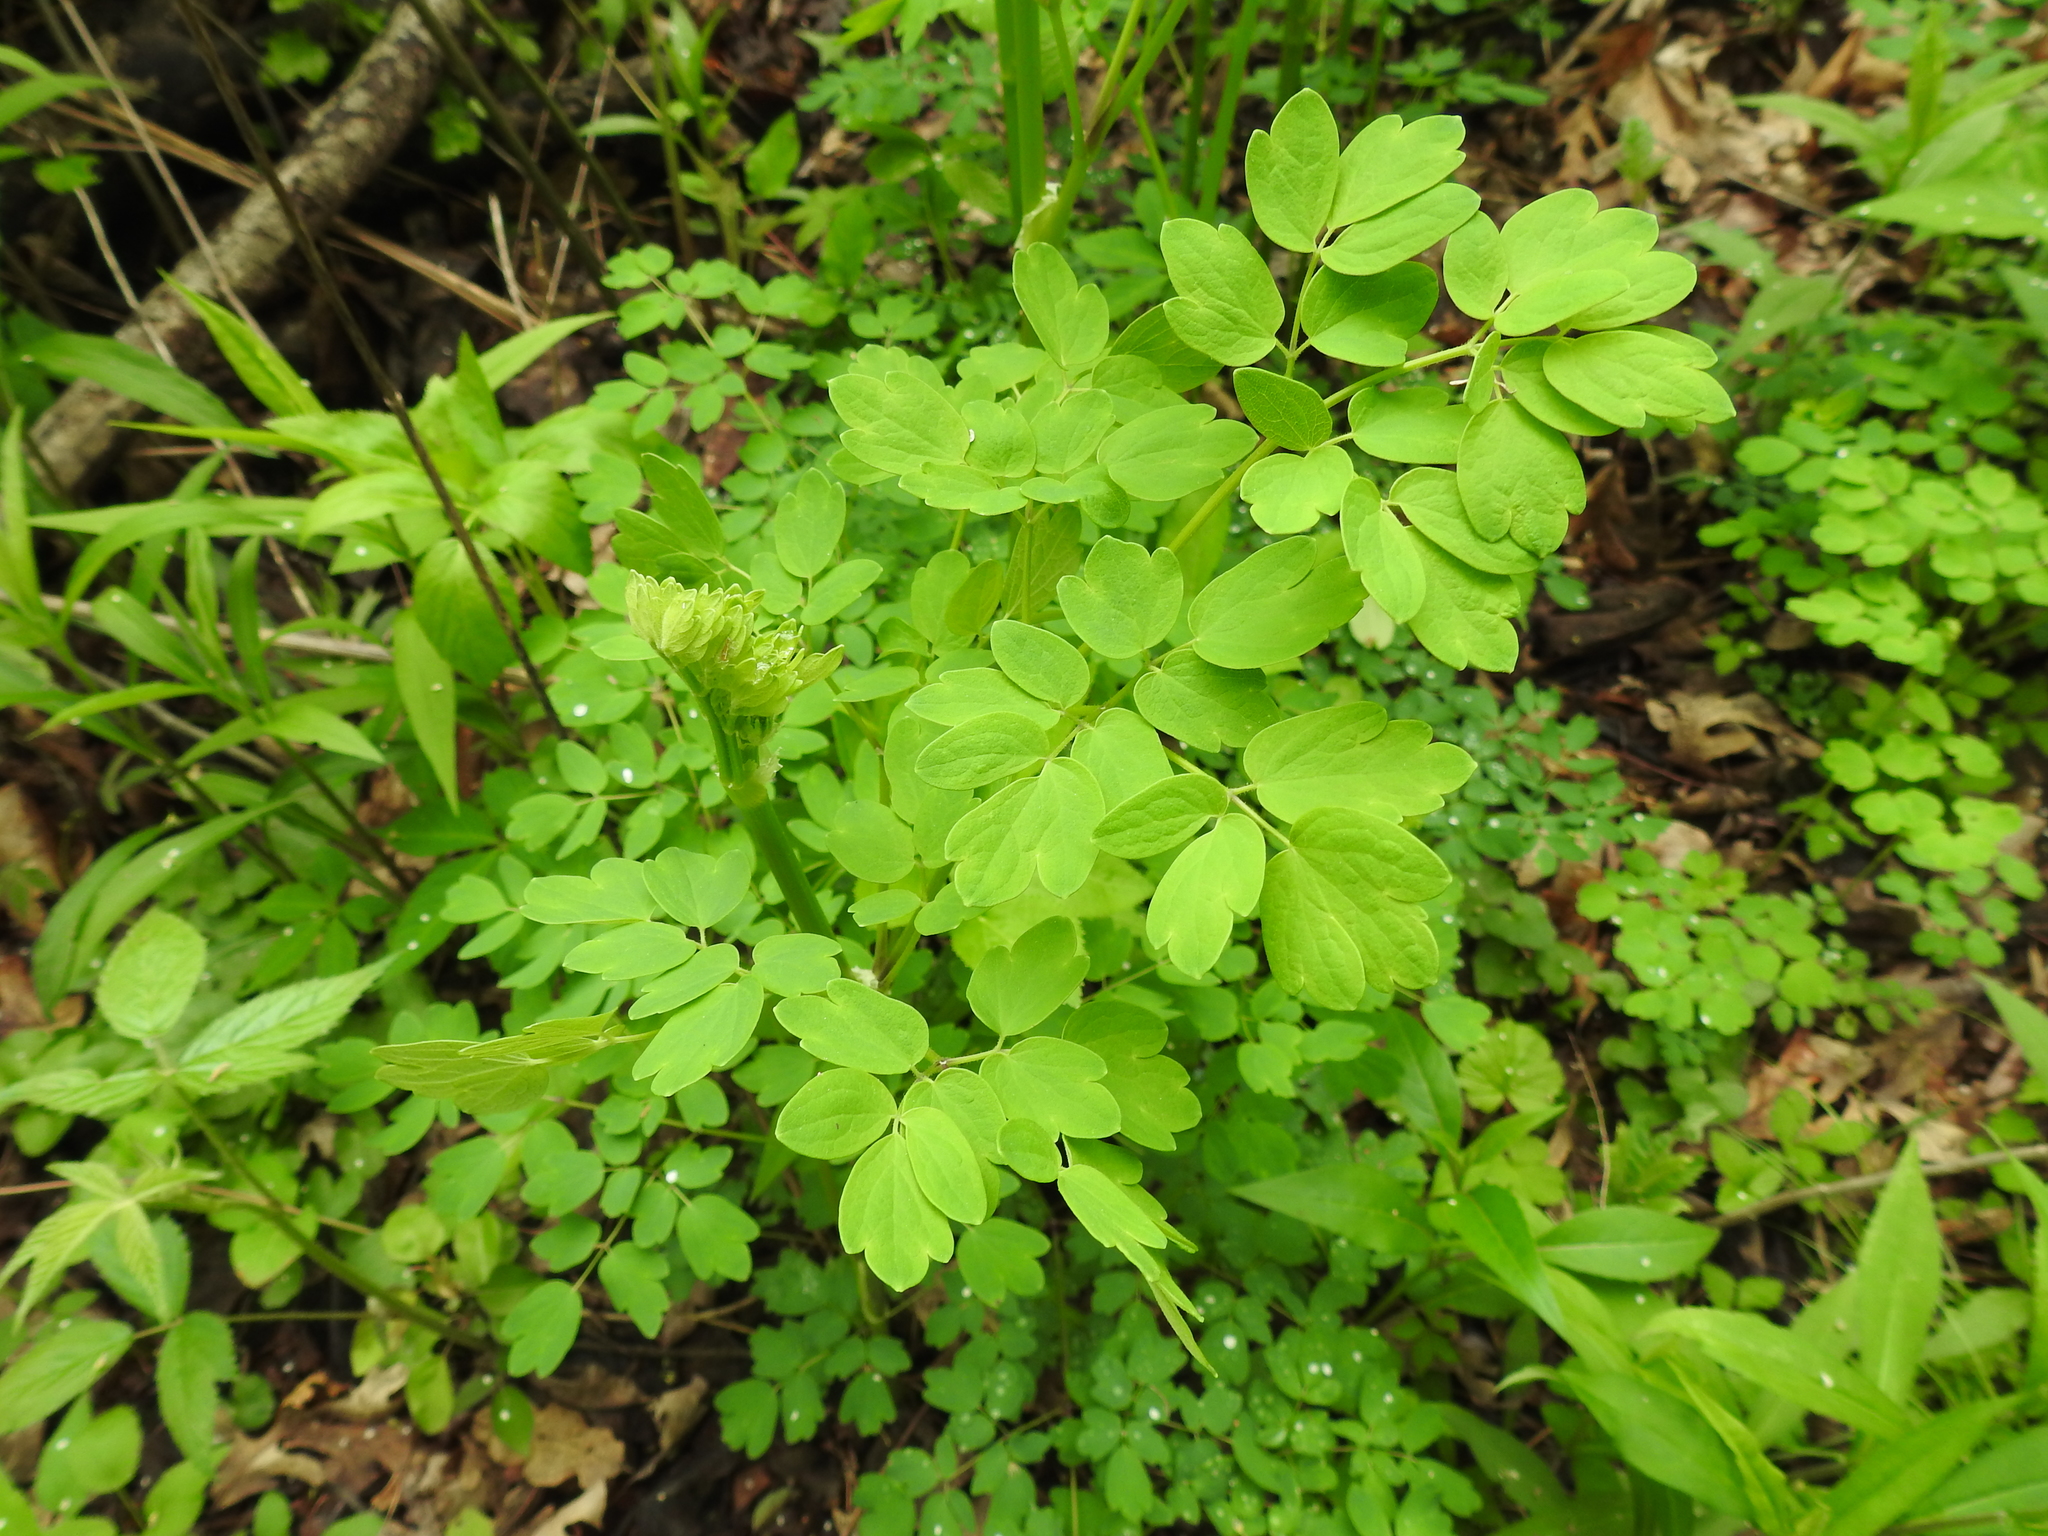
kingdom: Plantae
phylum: Tracheophyta
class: Magnoliopsida
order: Ranunculales
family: Ranunculaceae
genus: Thalictrum
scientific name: Thalictrum pubescens
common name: King-of-the-meadow
